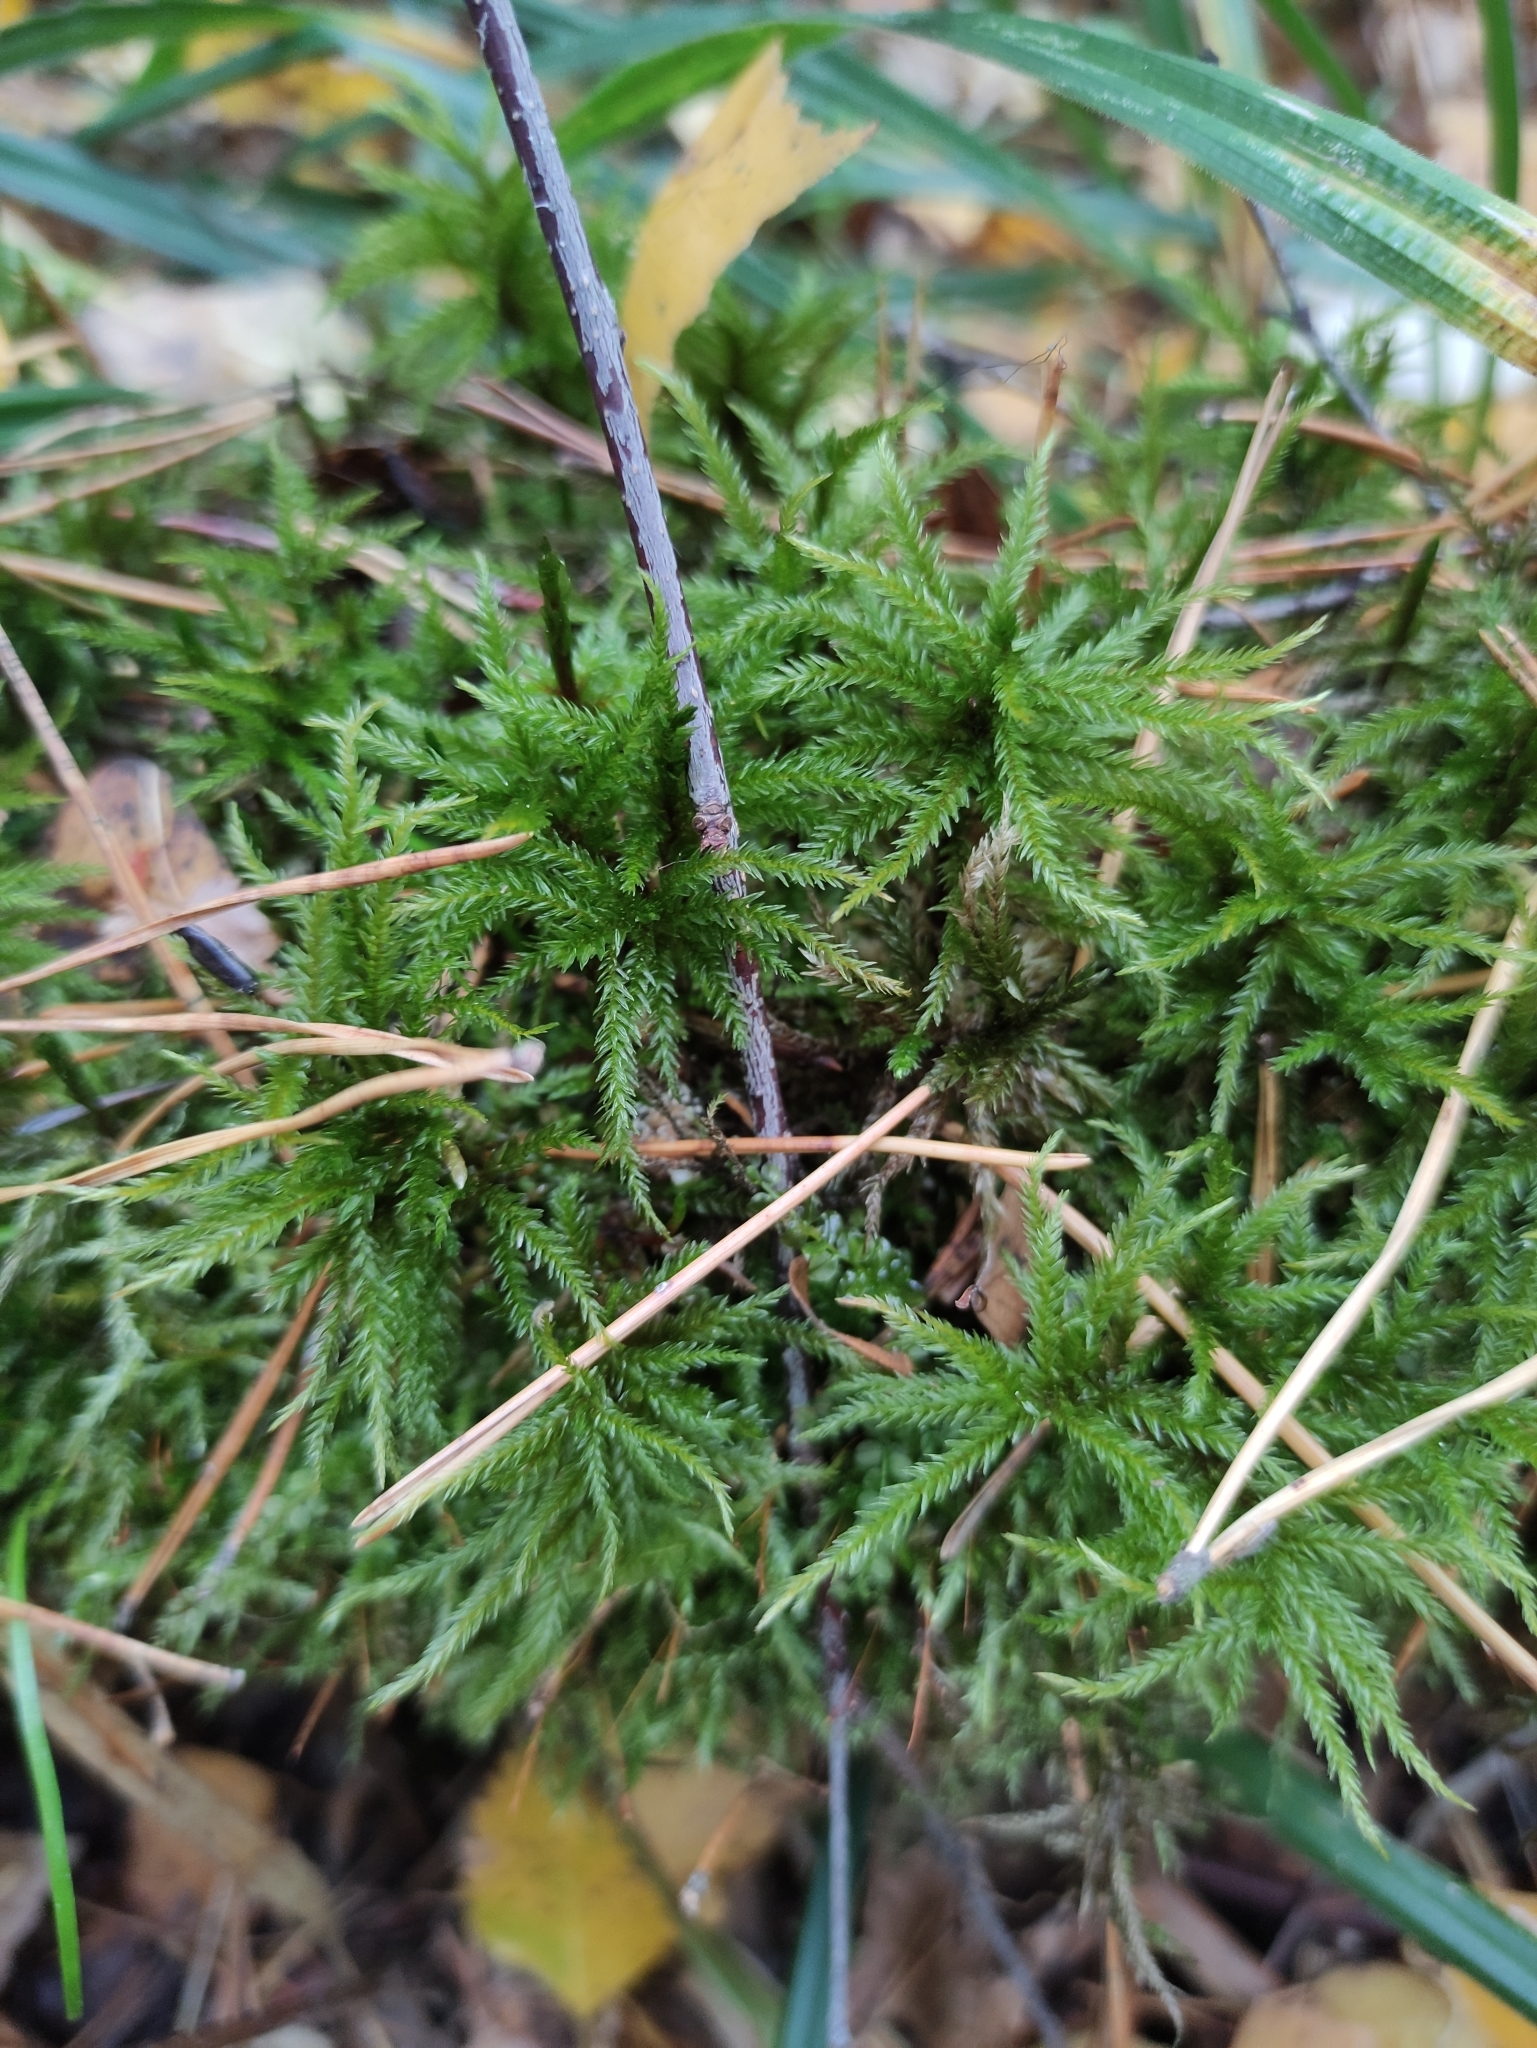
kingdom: Plantae
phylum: Bryophyta
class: Bryopsida
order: Hypnales
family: Climaciaceae
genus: Climacium
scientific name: Climacium dendroides
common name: Northern tree moss
